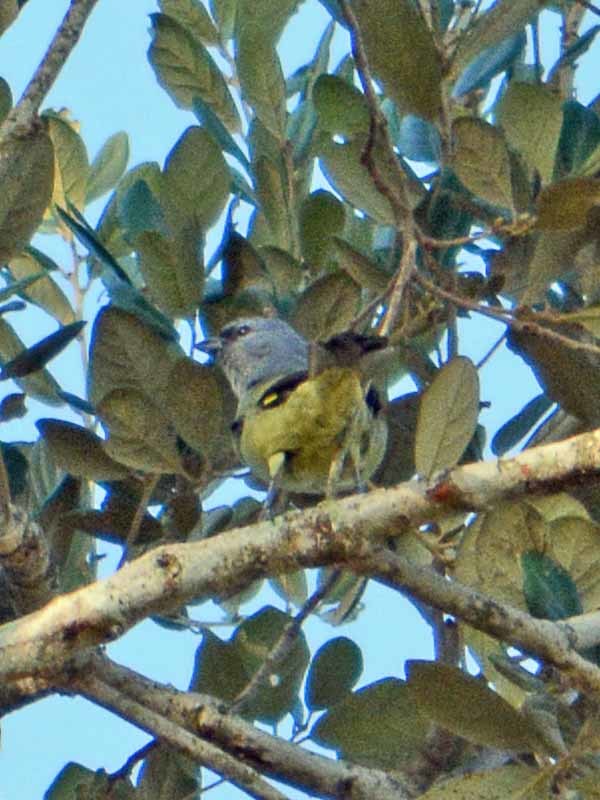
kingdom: Animalia
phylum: Chordata
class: Aves
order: Passeriformes
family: Thraupidae
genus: Thraupis
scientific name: Thraupis abbas
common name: Yellow-winged tanager
